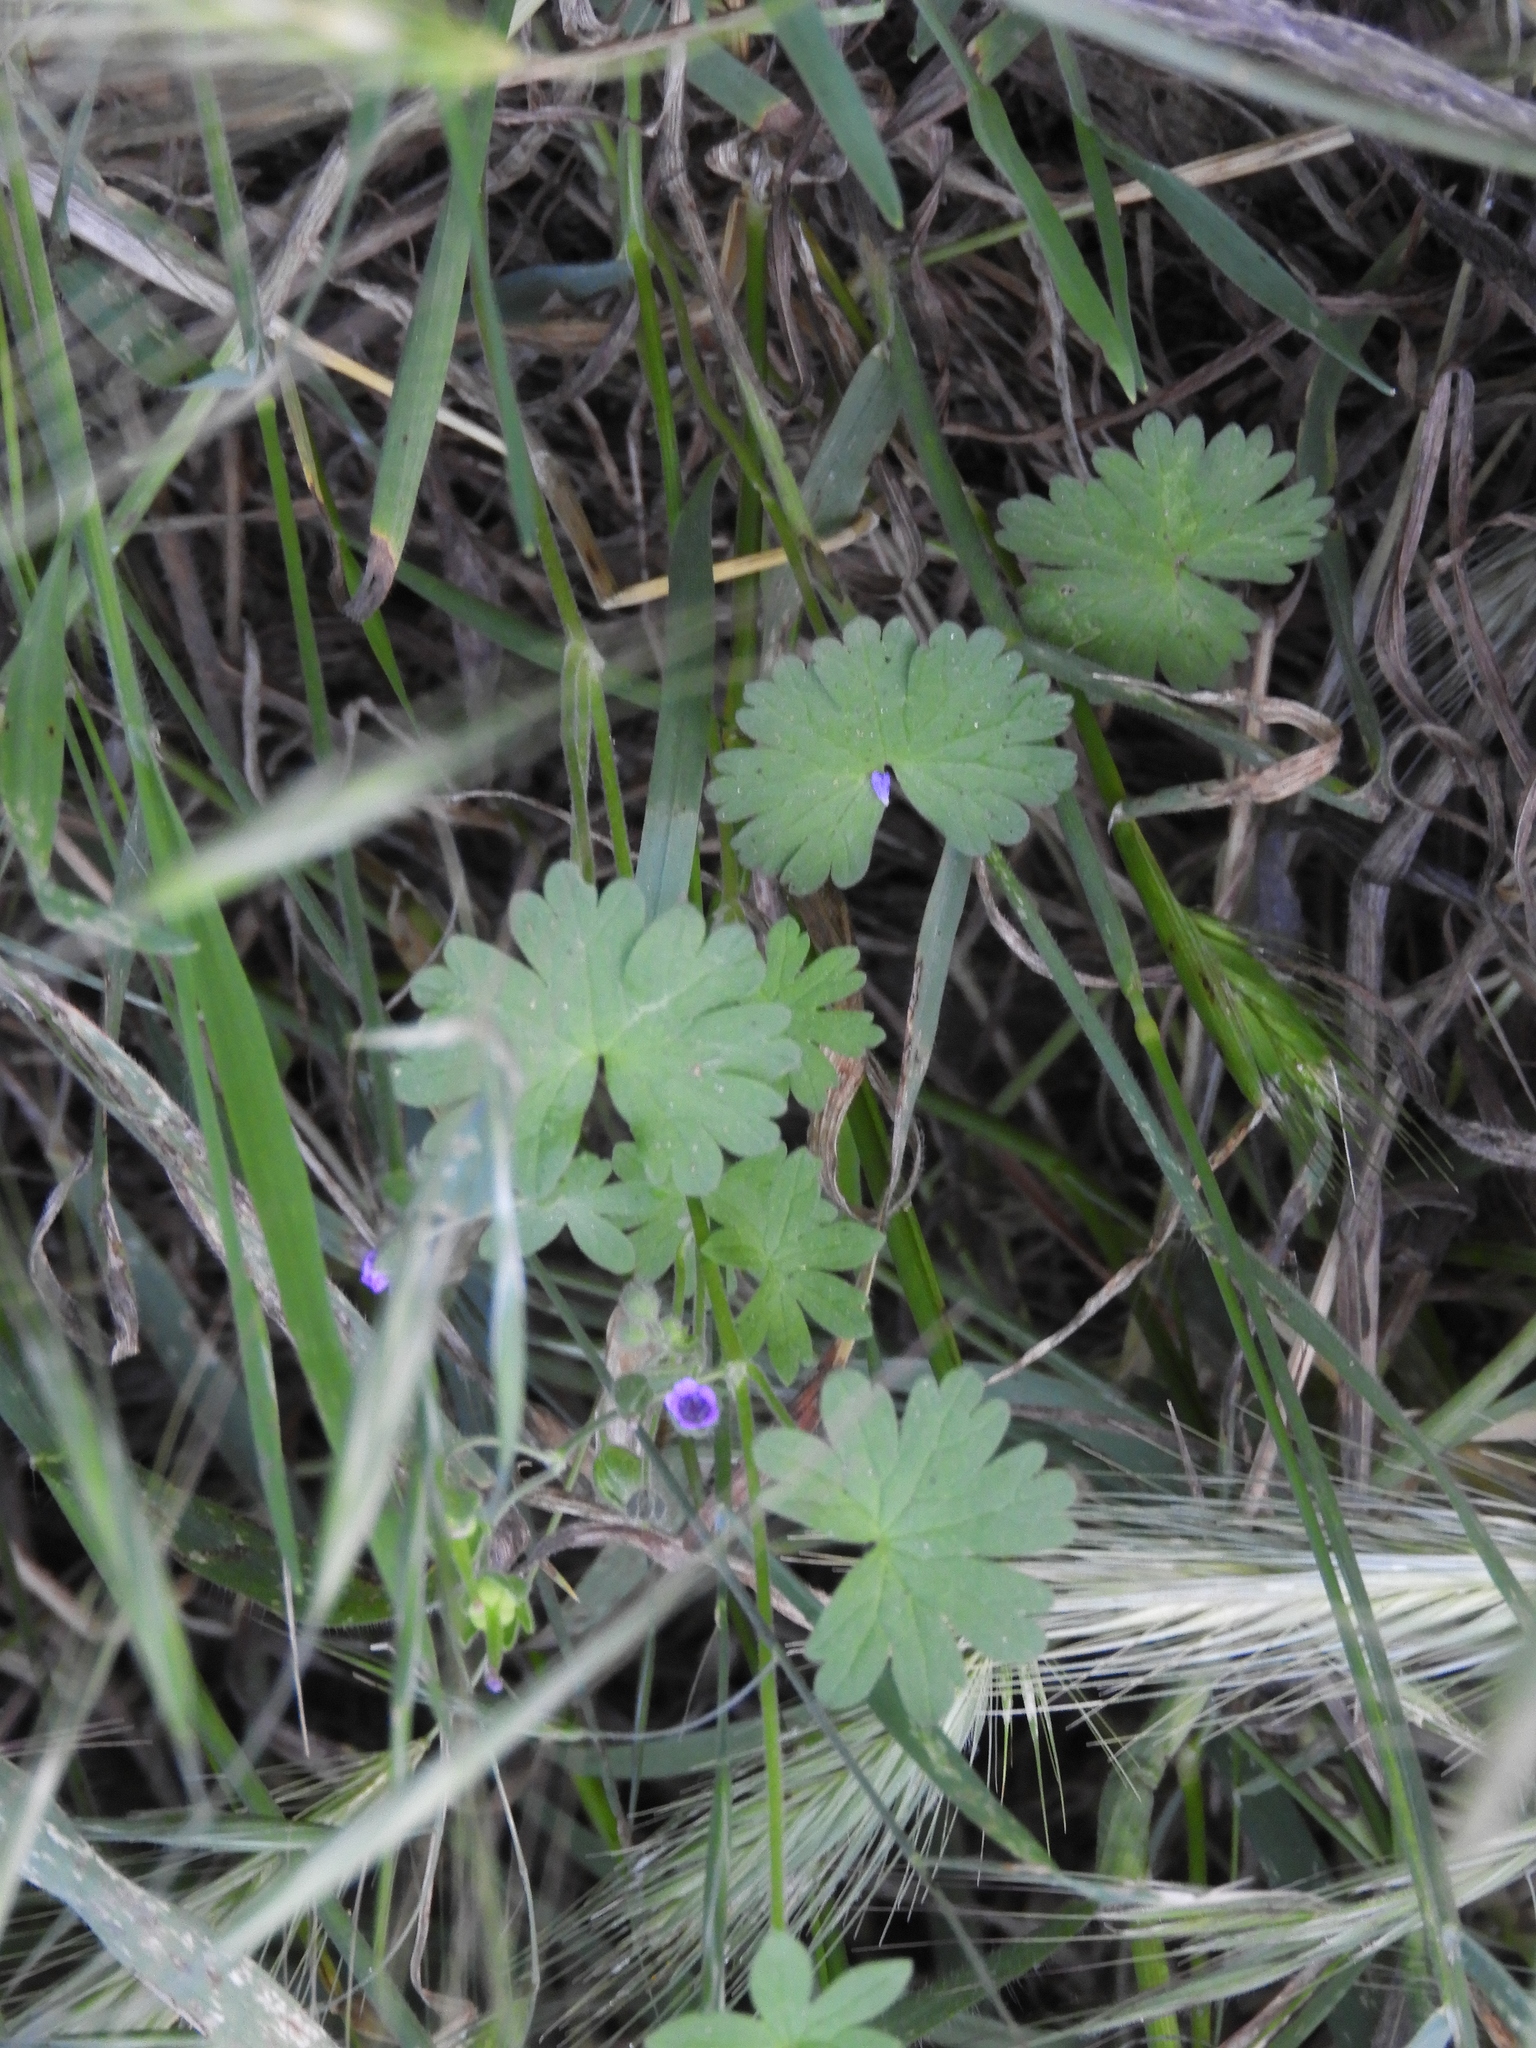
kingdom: Plantae
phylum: Tracheophyta
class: Magnoliopsida
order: Geraniales
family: Geraniaceae
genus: Geranium
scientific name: Geranium molle
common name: Dove's-foot crane's-bill
